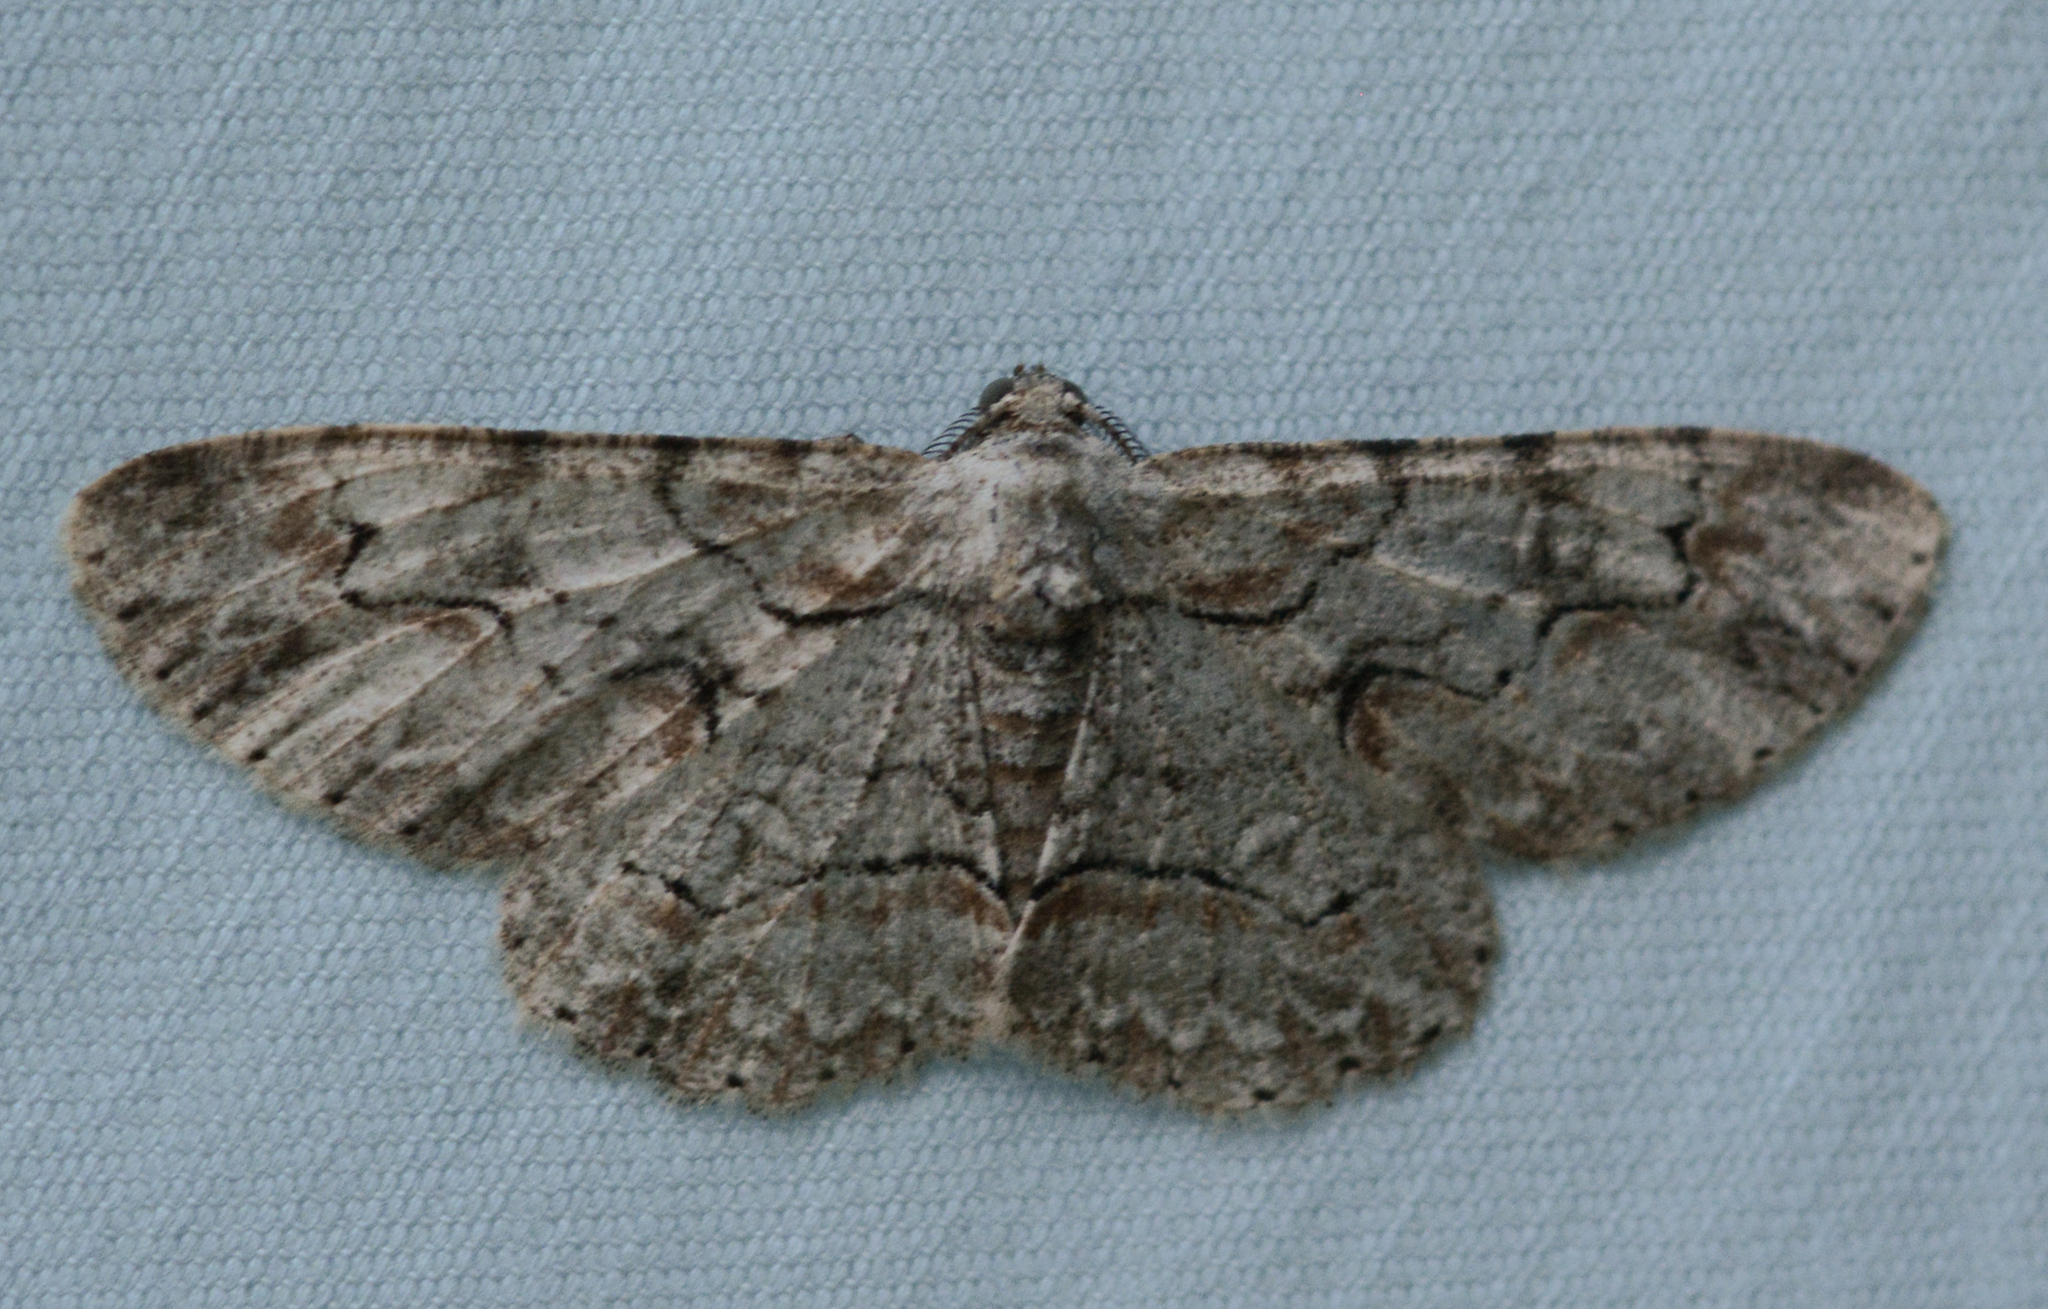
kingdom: Animalia
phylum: Arthropoda
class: Insecta
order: Lepidoptera
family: Geometridae
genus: Iridopsis
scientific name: Iridopsis defectaria
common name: Brown-shaded gray
